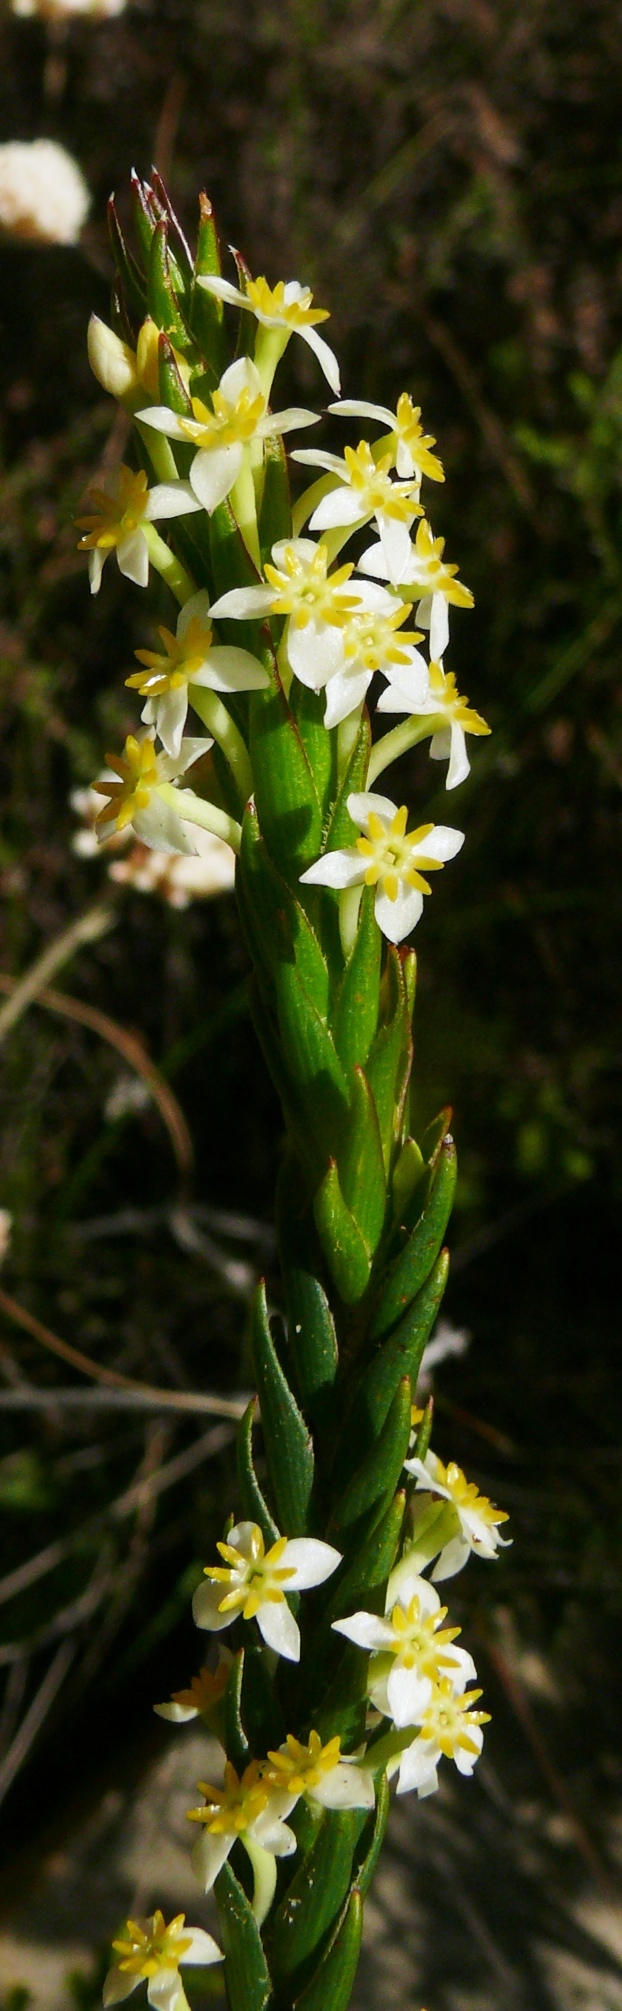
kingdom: Plantae
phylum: Tracheophyta
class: Magnoliopsida
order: Malvales
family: Thymelaeaceae
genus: Struthiola
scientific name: Struthiola ciliata
